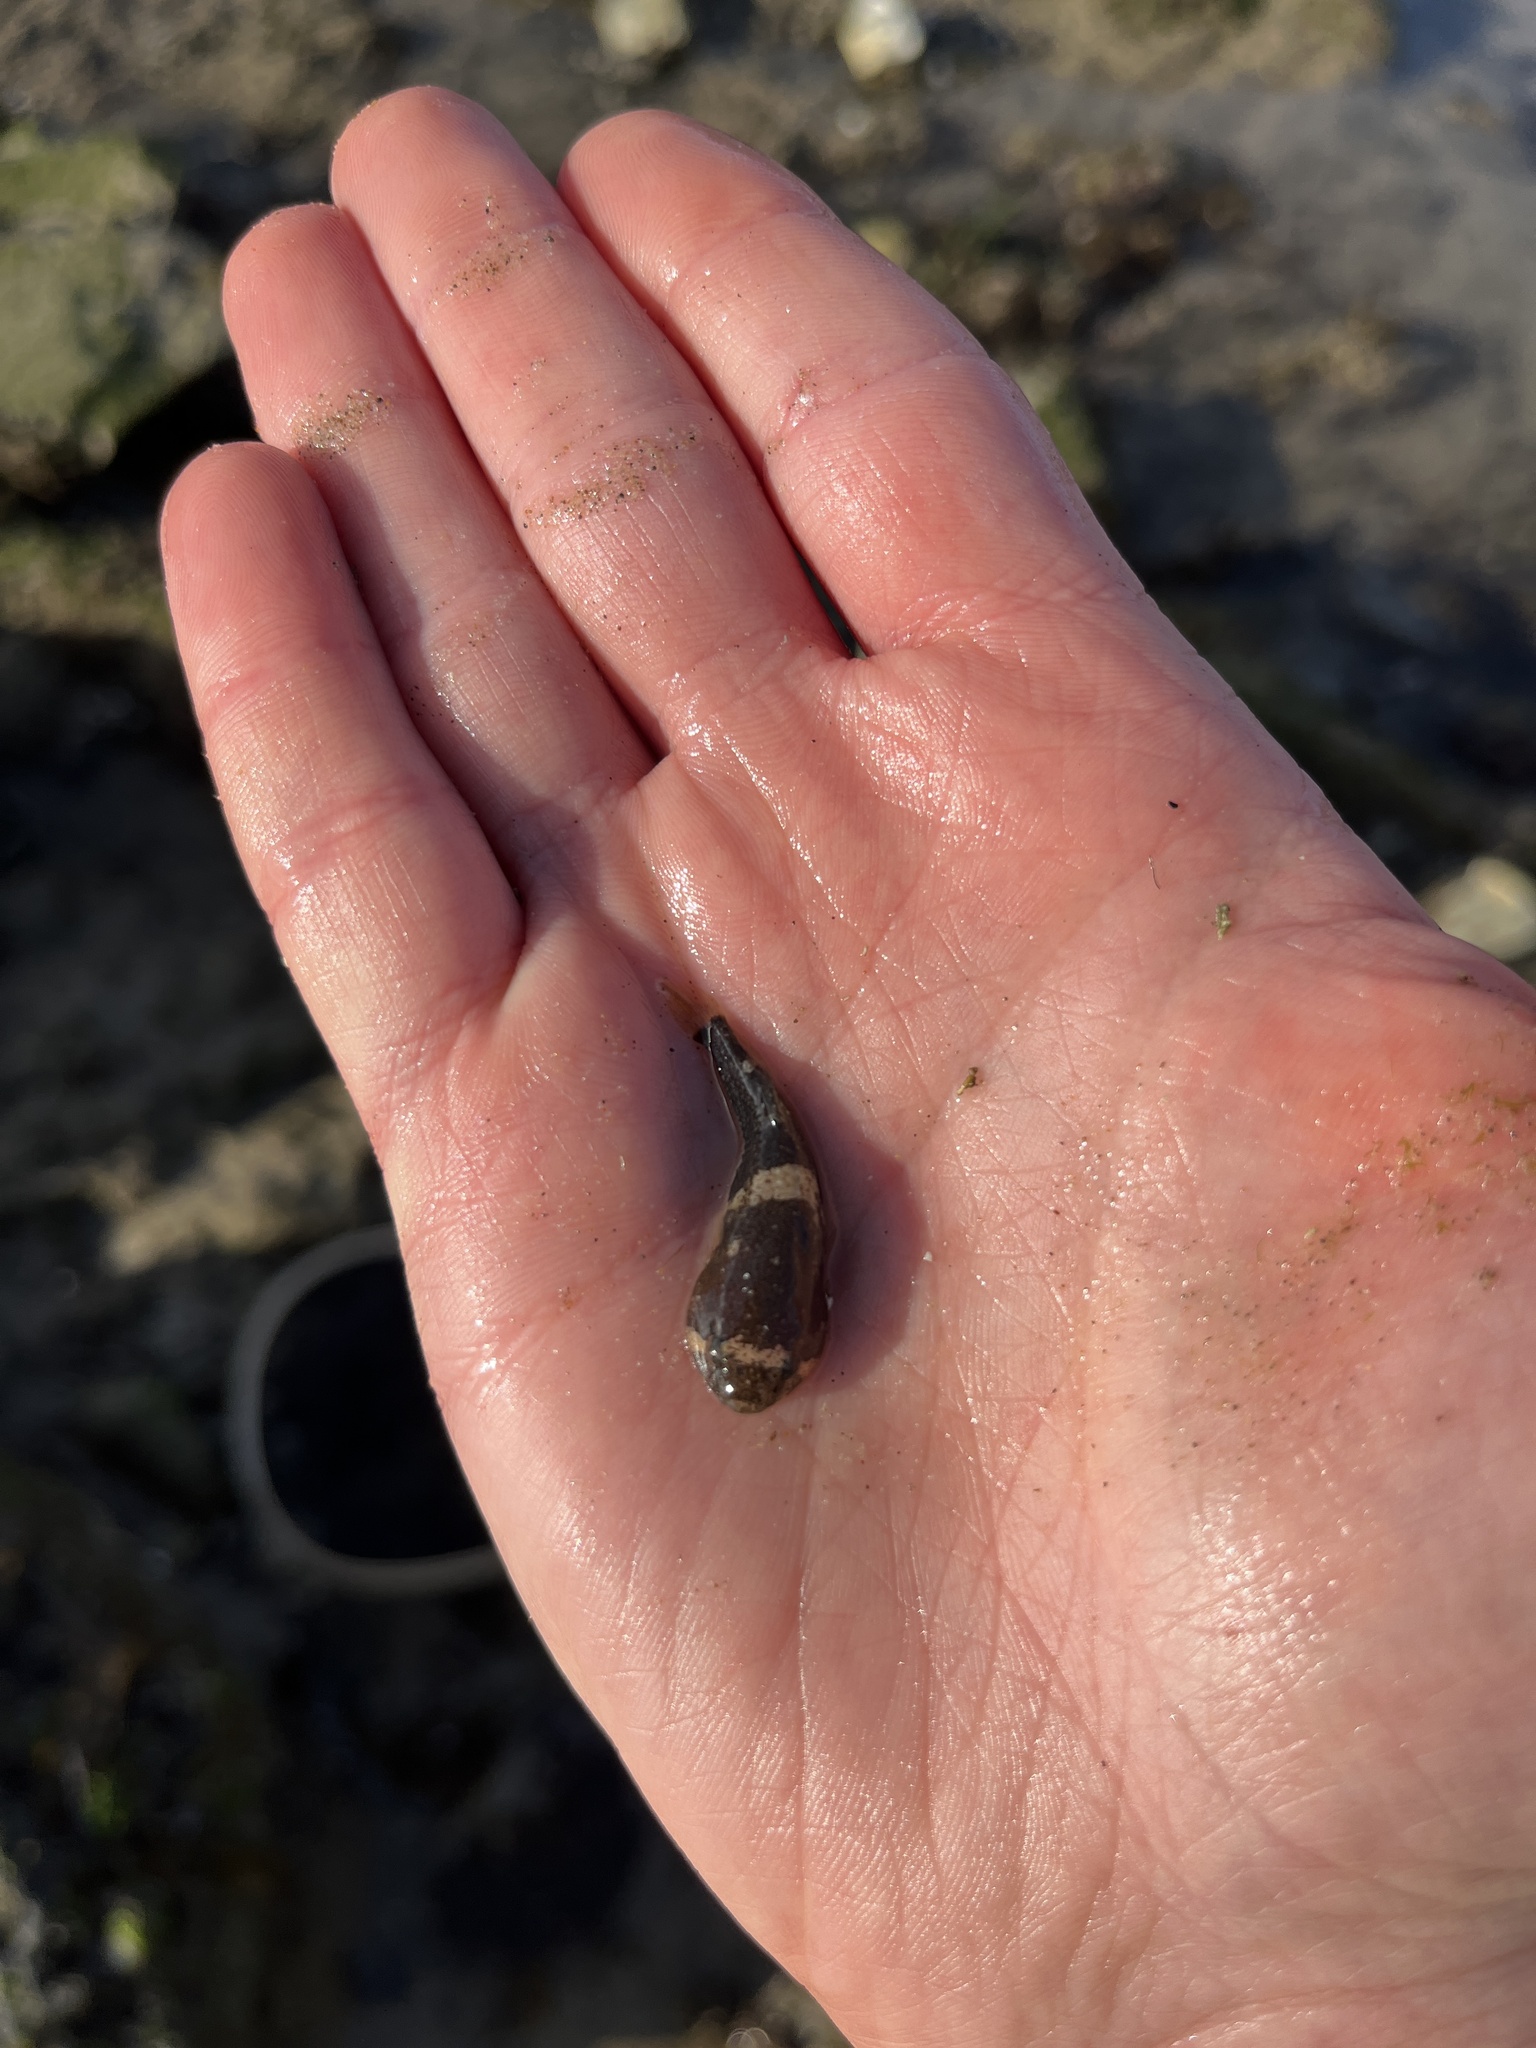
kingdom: Animalia
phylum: Chordata
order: Gobiesociformes
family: Gobiesocidae
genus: Gobiesox
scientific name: Gobiesox rhessodon
